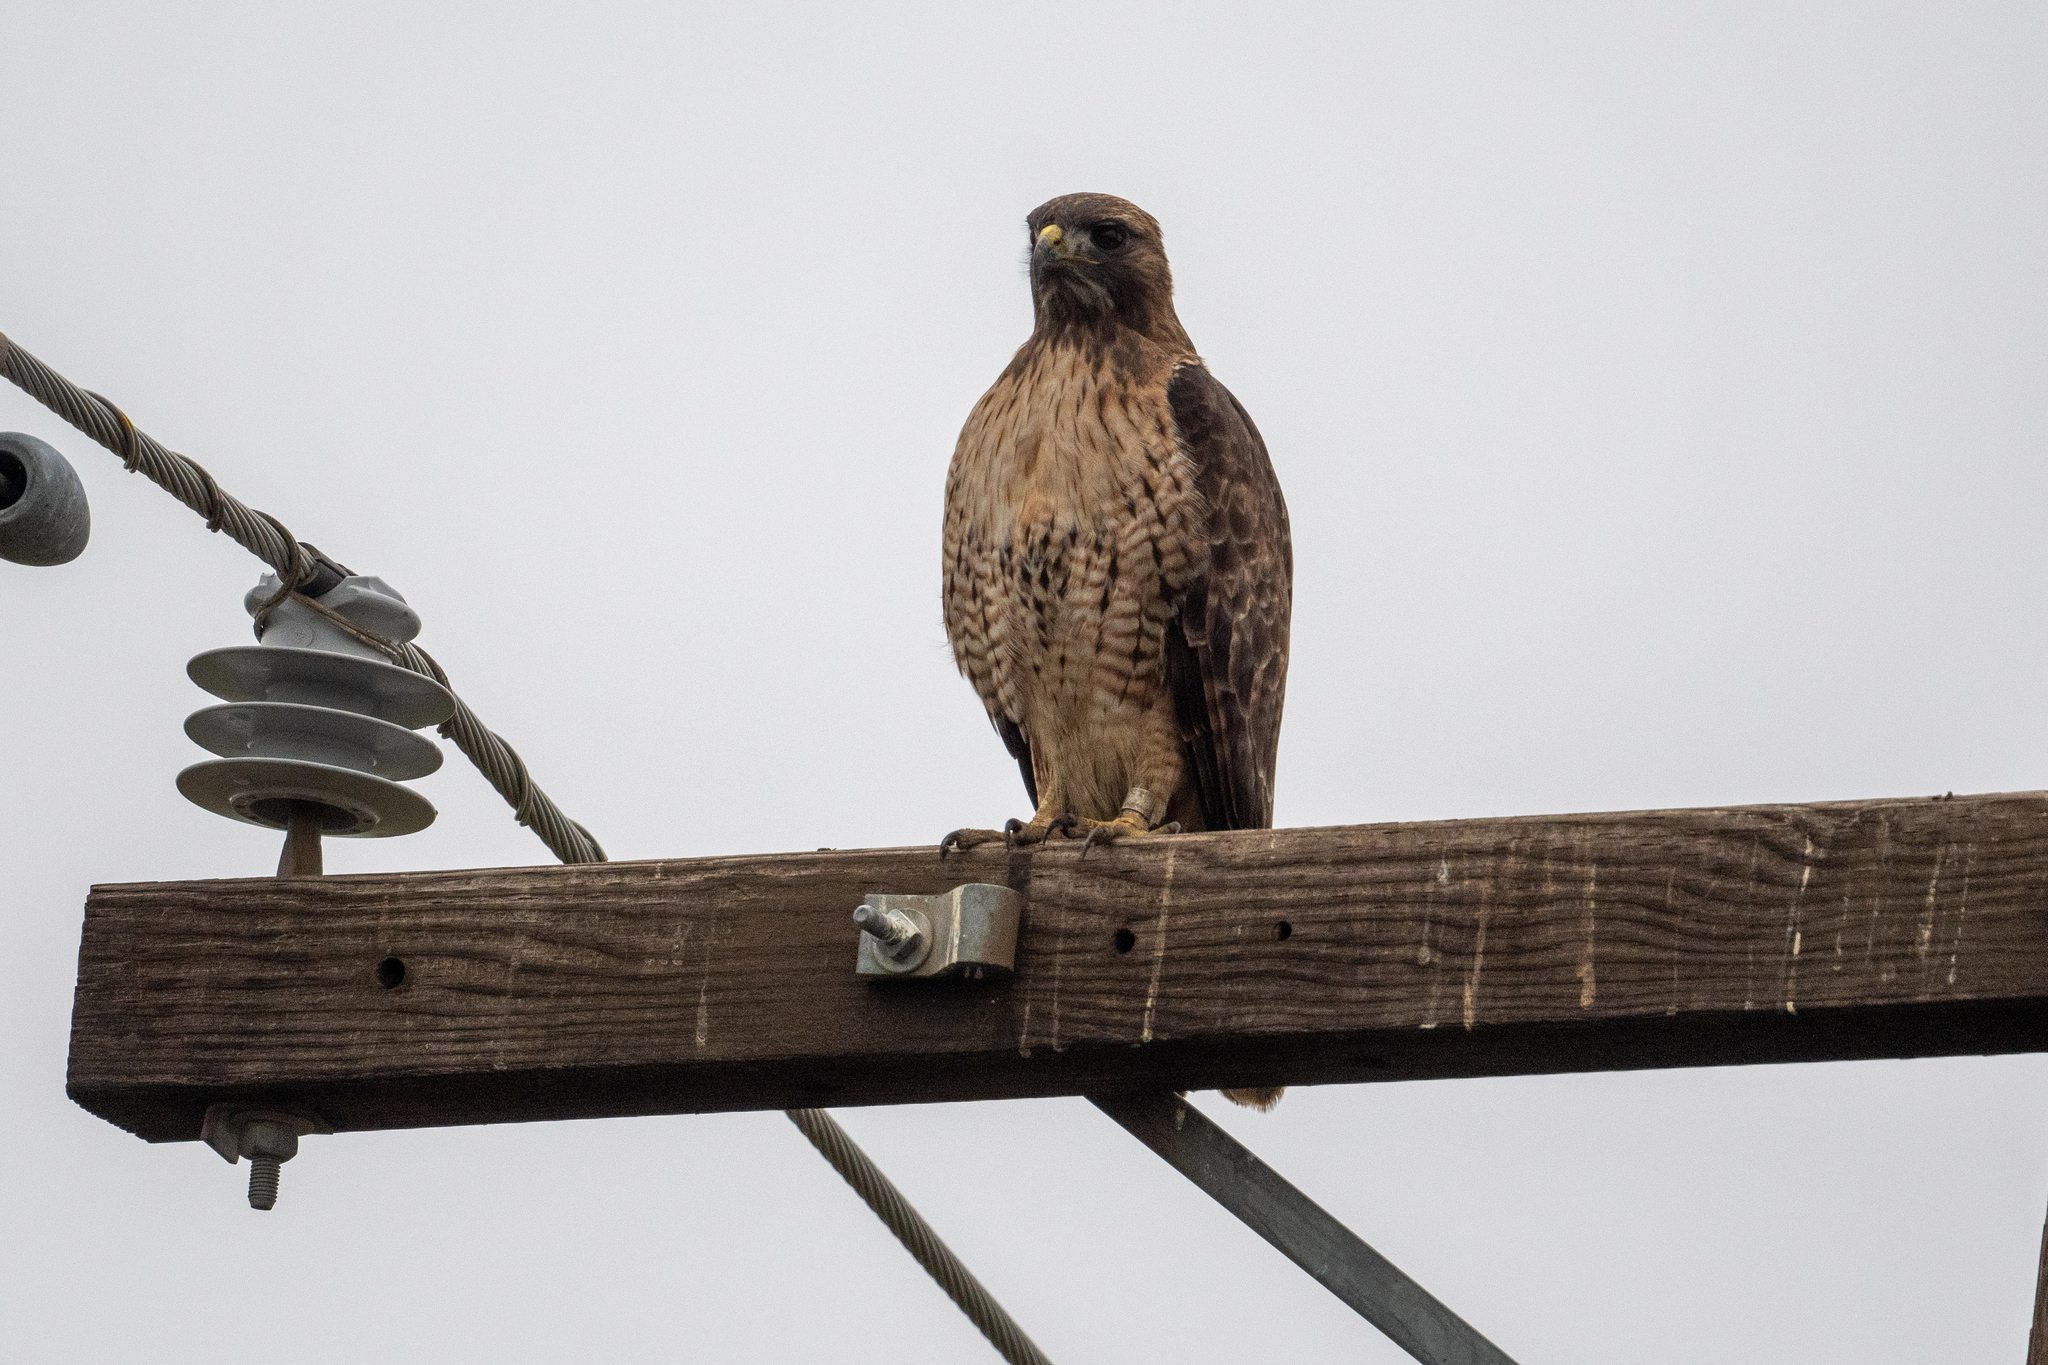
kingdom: Animalia
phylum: Chordata
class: Aves
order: Accipitriformes
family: Accipitridae
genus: Buteo
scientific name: Buteo jamaicensis
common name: Red-tailed hawk
